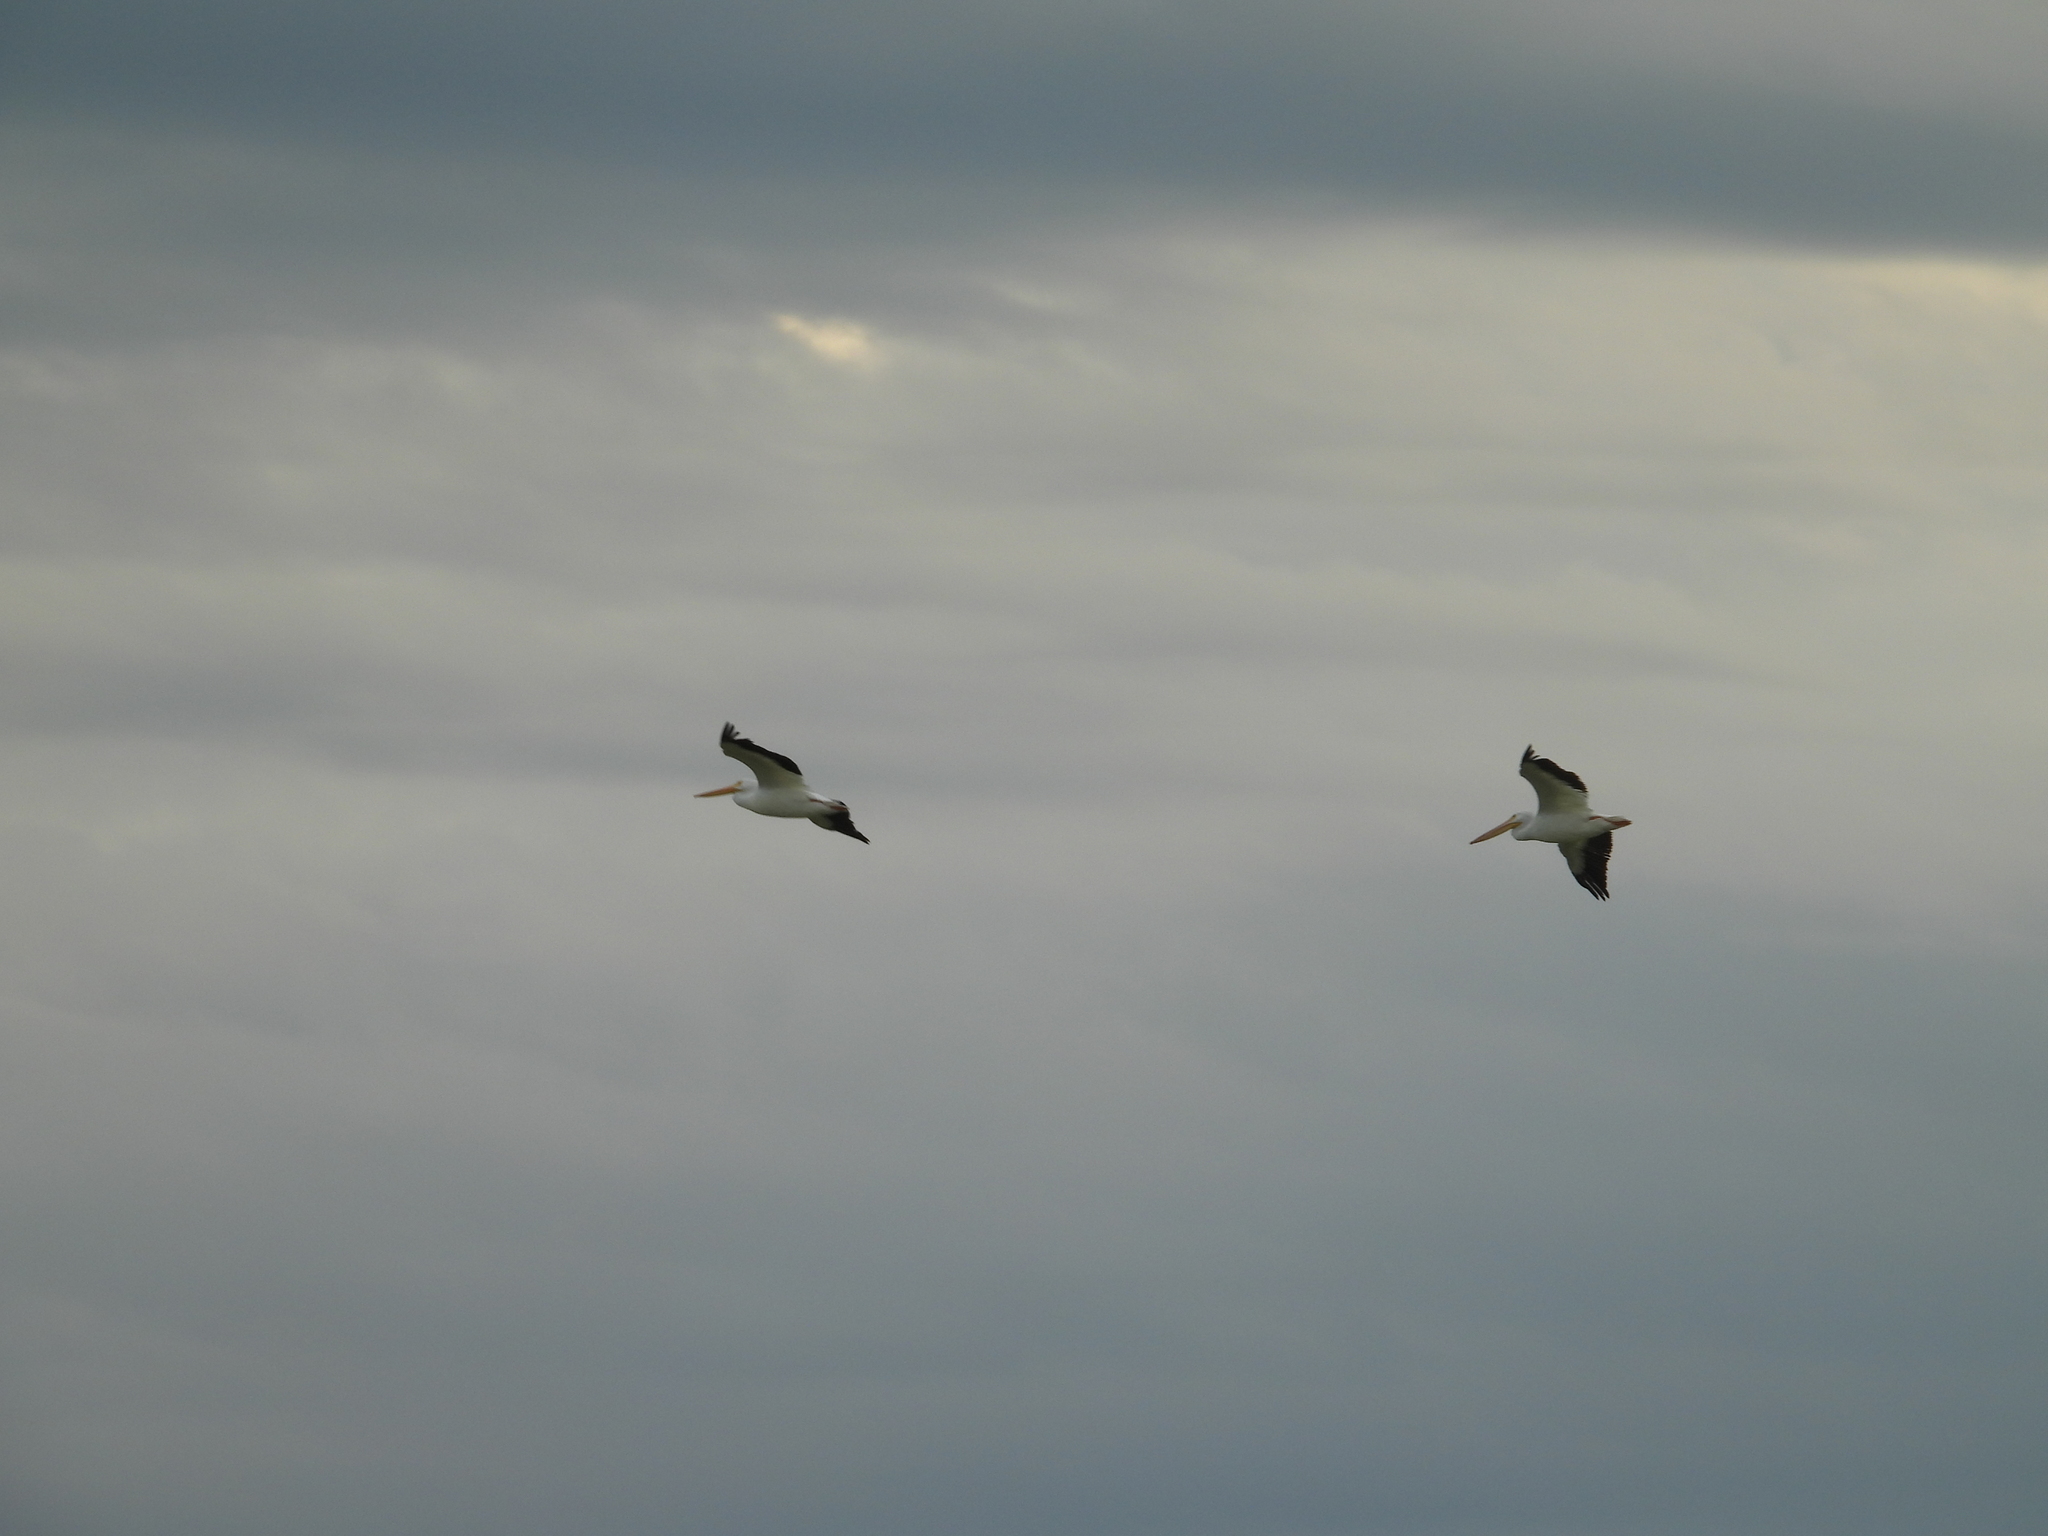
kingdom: Animalia
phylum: Chordata
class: Aves
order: Pelecaniformes
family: Pelecanidae
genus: Pelecanus
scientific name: Pelecanus erythrorhynchos
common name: American white pelican
